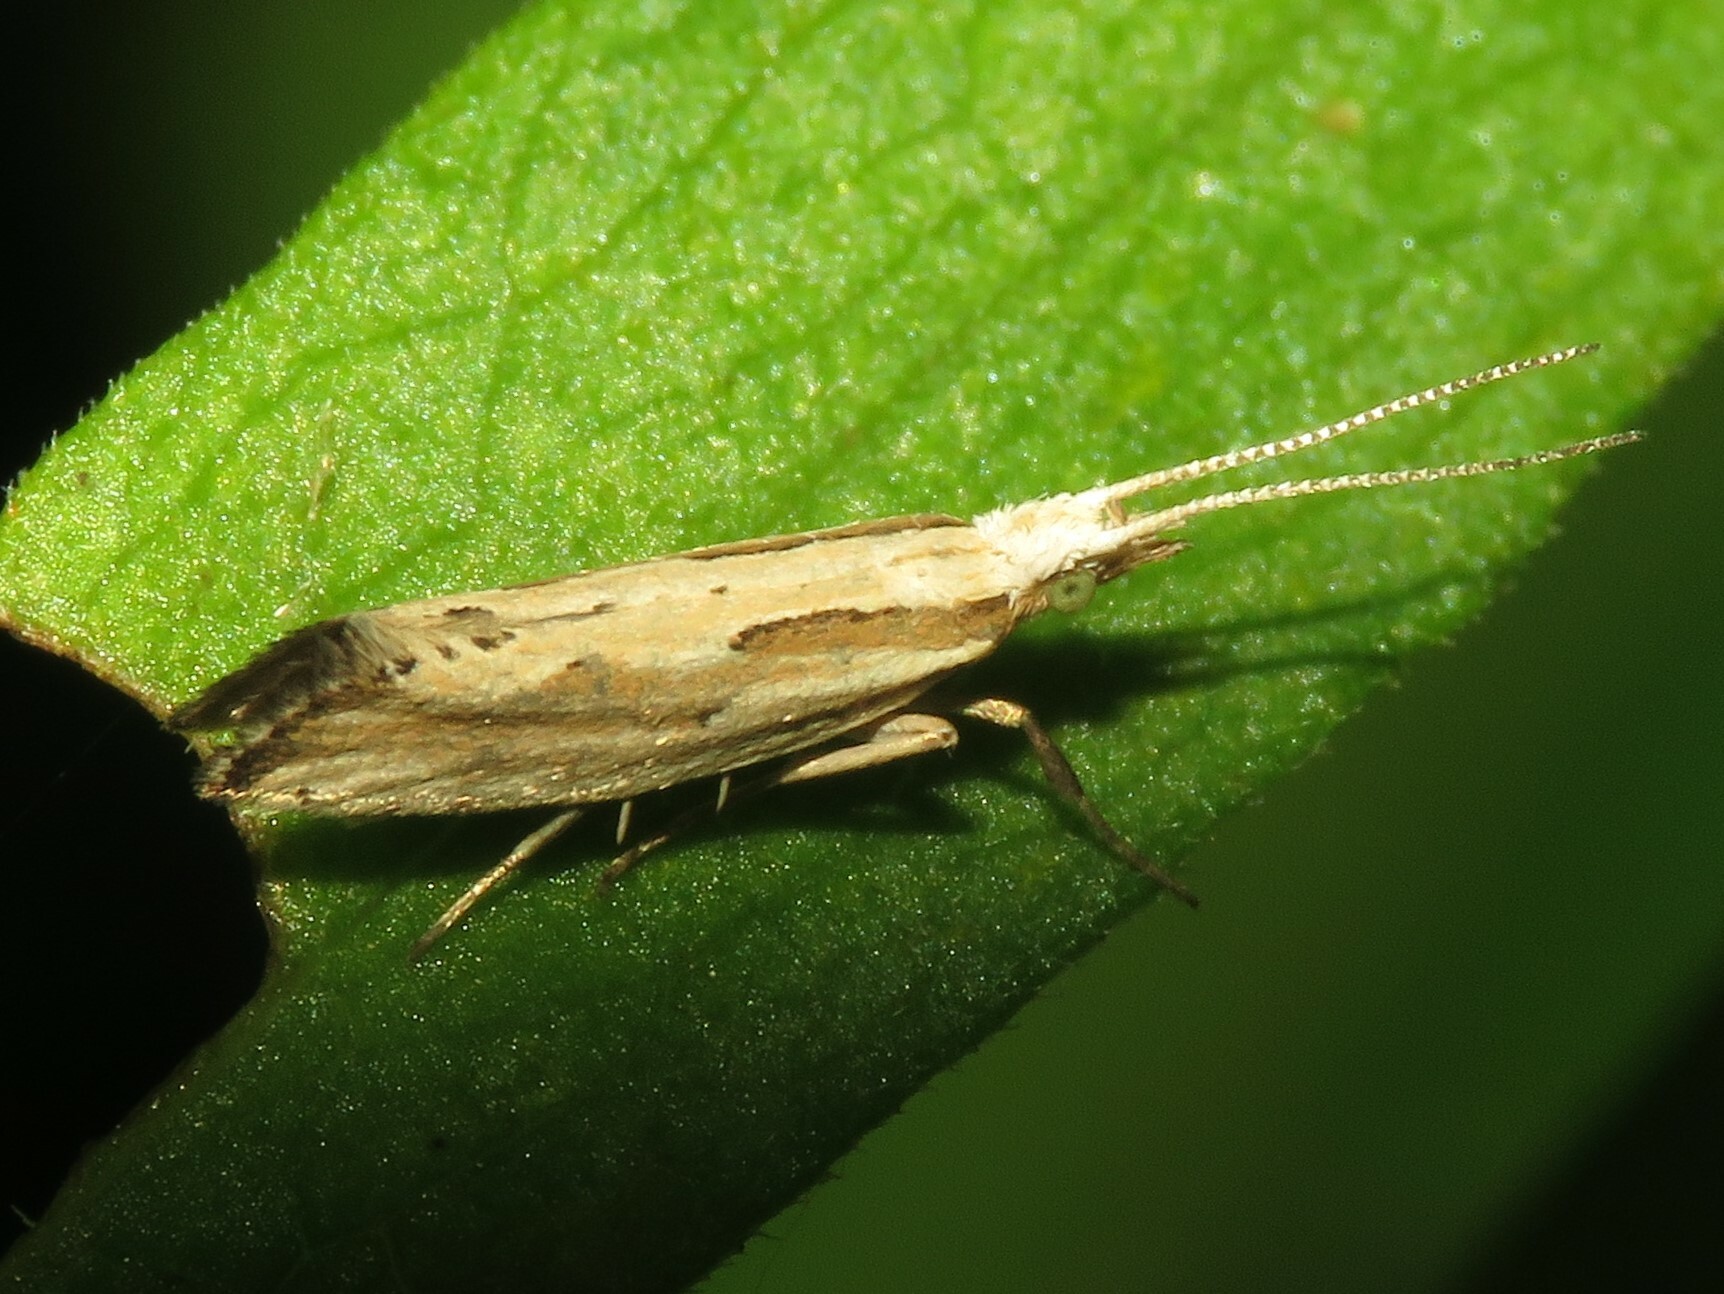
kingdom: Animalia
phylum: Arthropoda
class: Insecta
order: Lepidoptera
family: Plutellidae
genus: Plutella
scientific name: Plutella porrectella
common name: Dame's rocket moth
